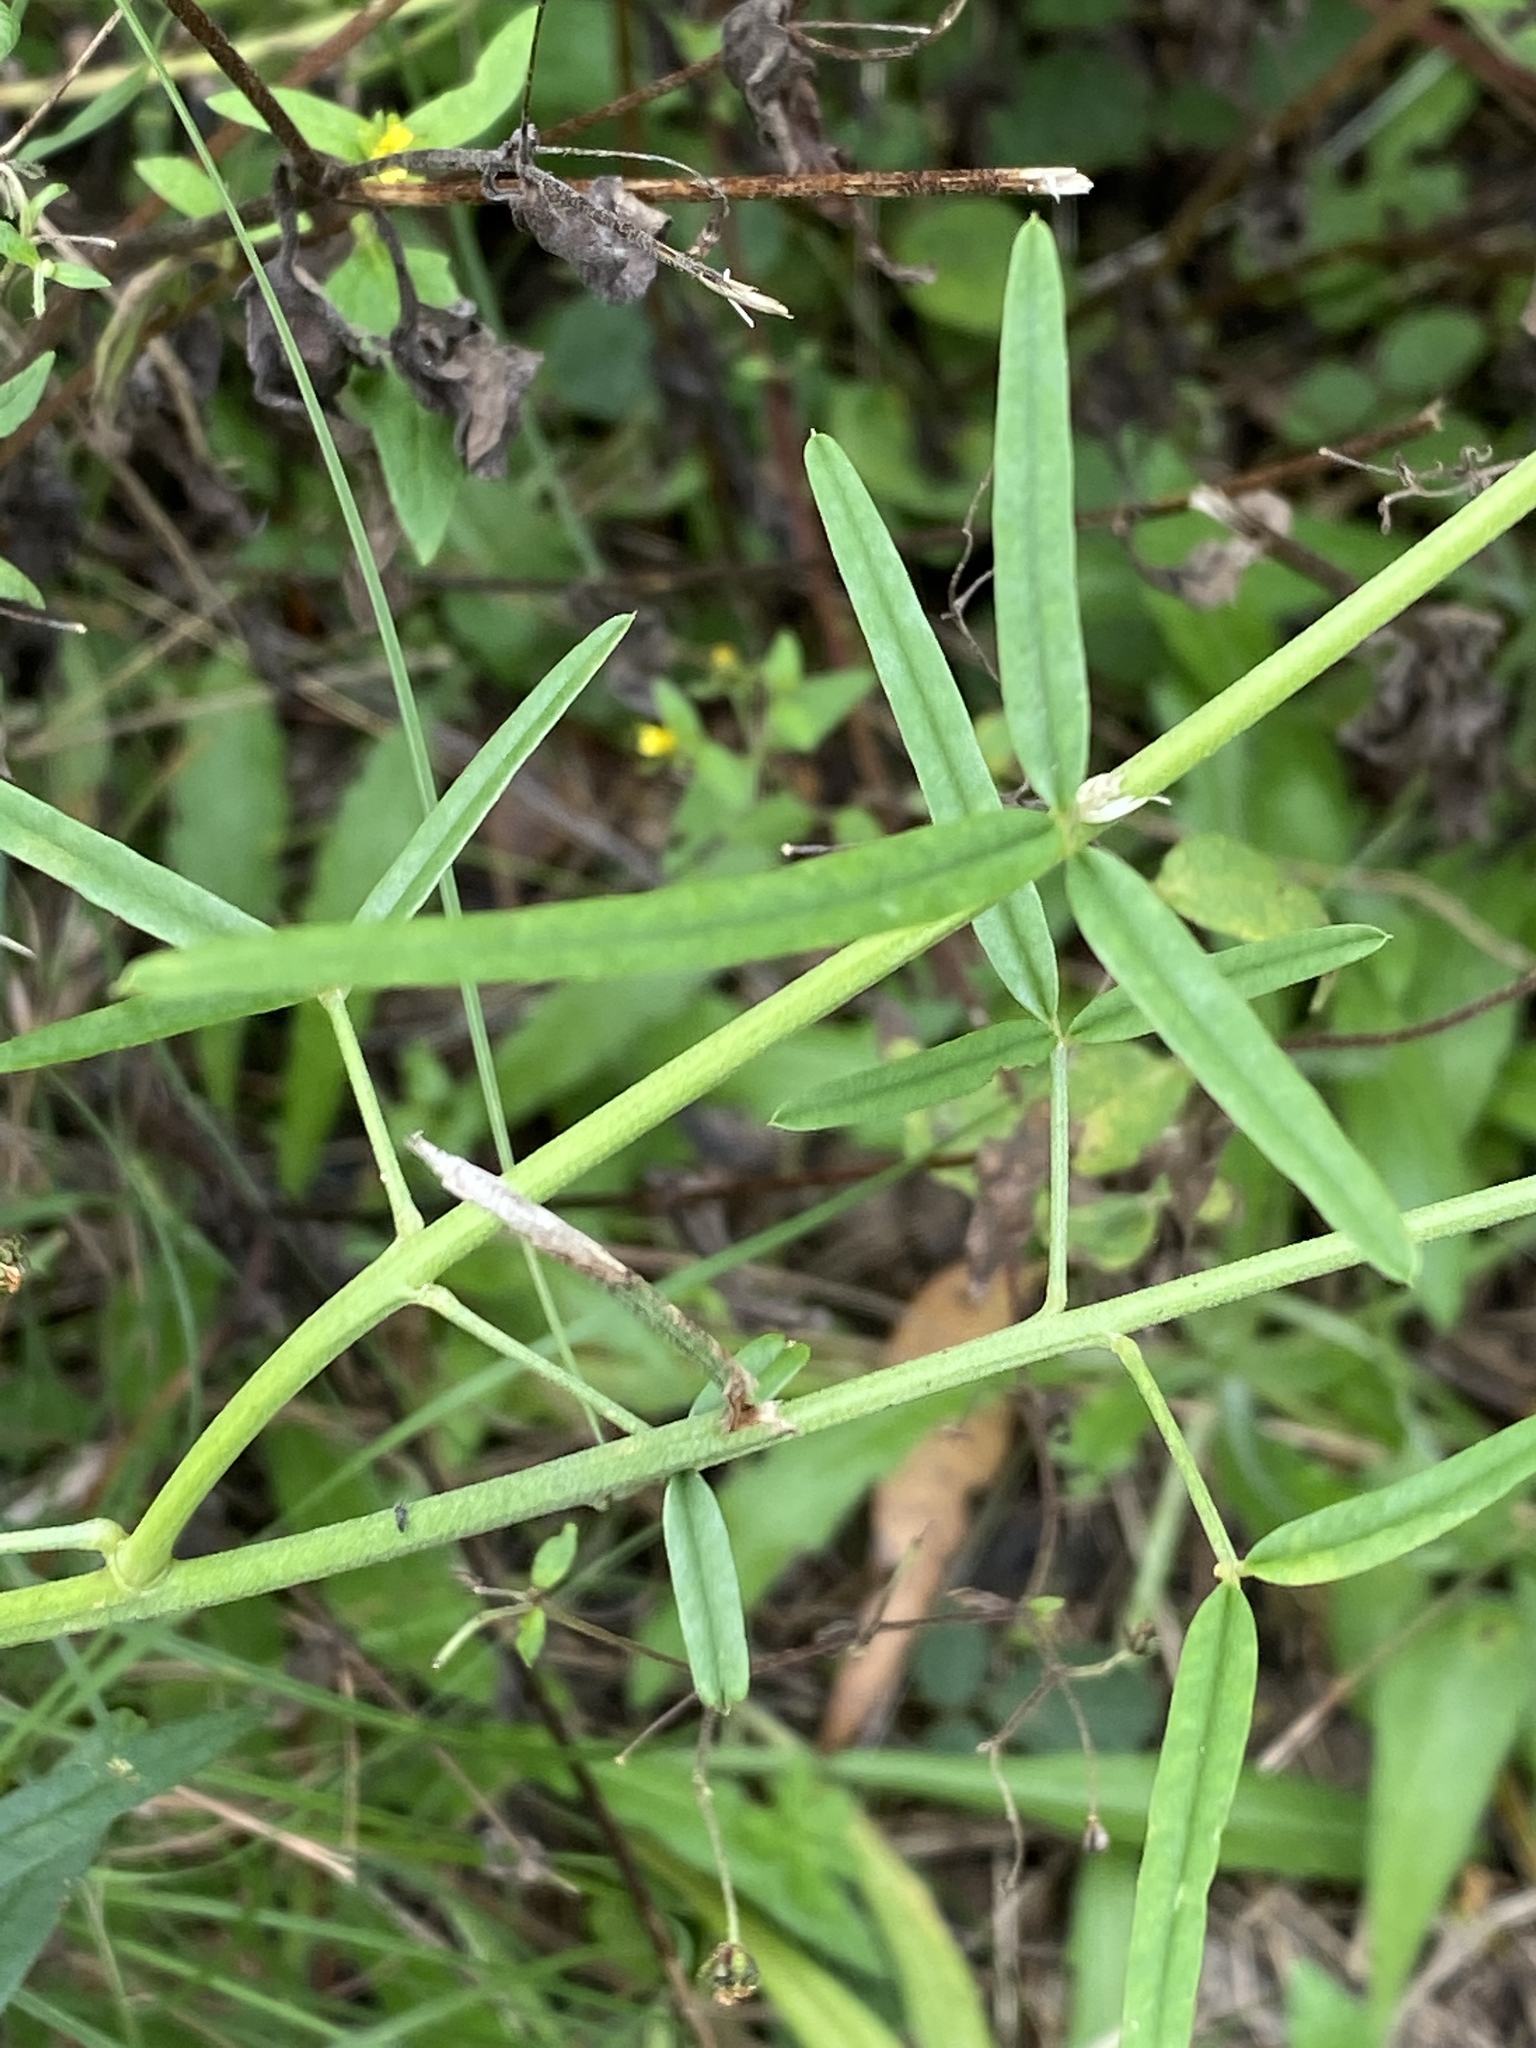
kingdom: Plantae
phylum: Tracheophyta
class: Magnoliopsida
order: Fabales
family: Fabaceae
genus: Crotalaria
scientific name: Crotalaria lanceolata
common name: Lanceleaf rattlebox
